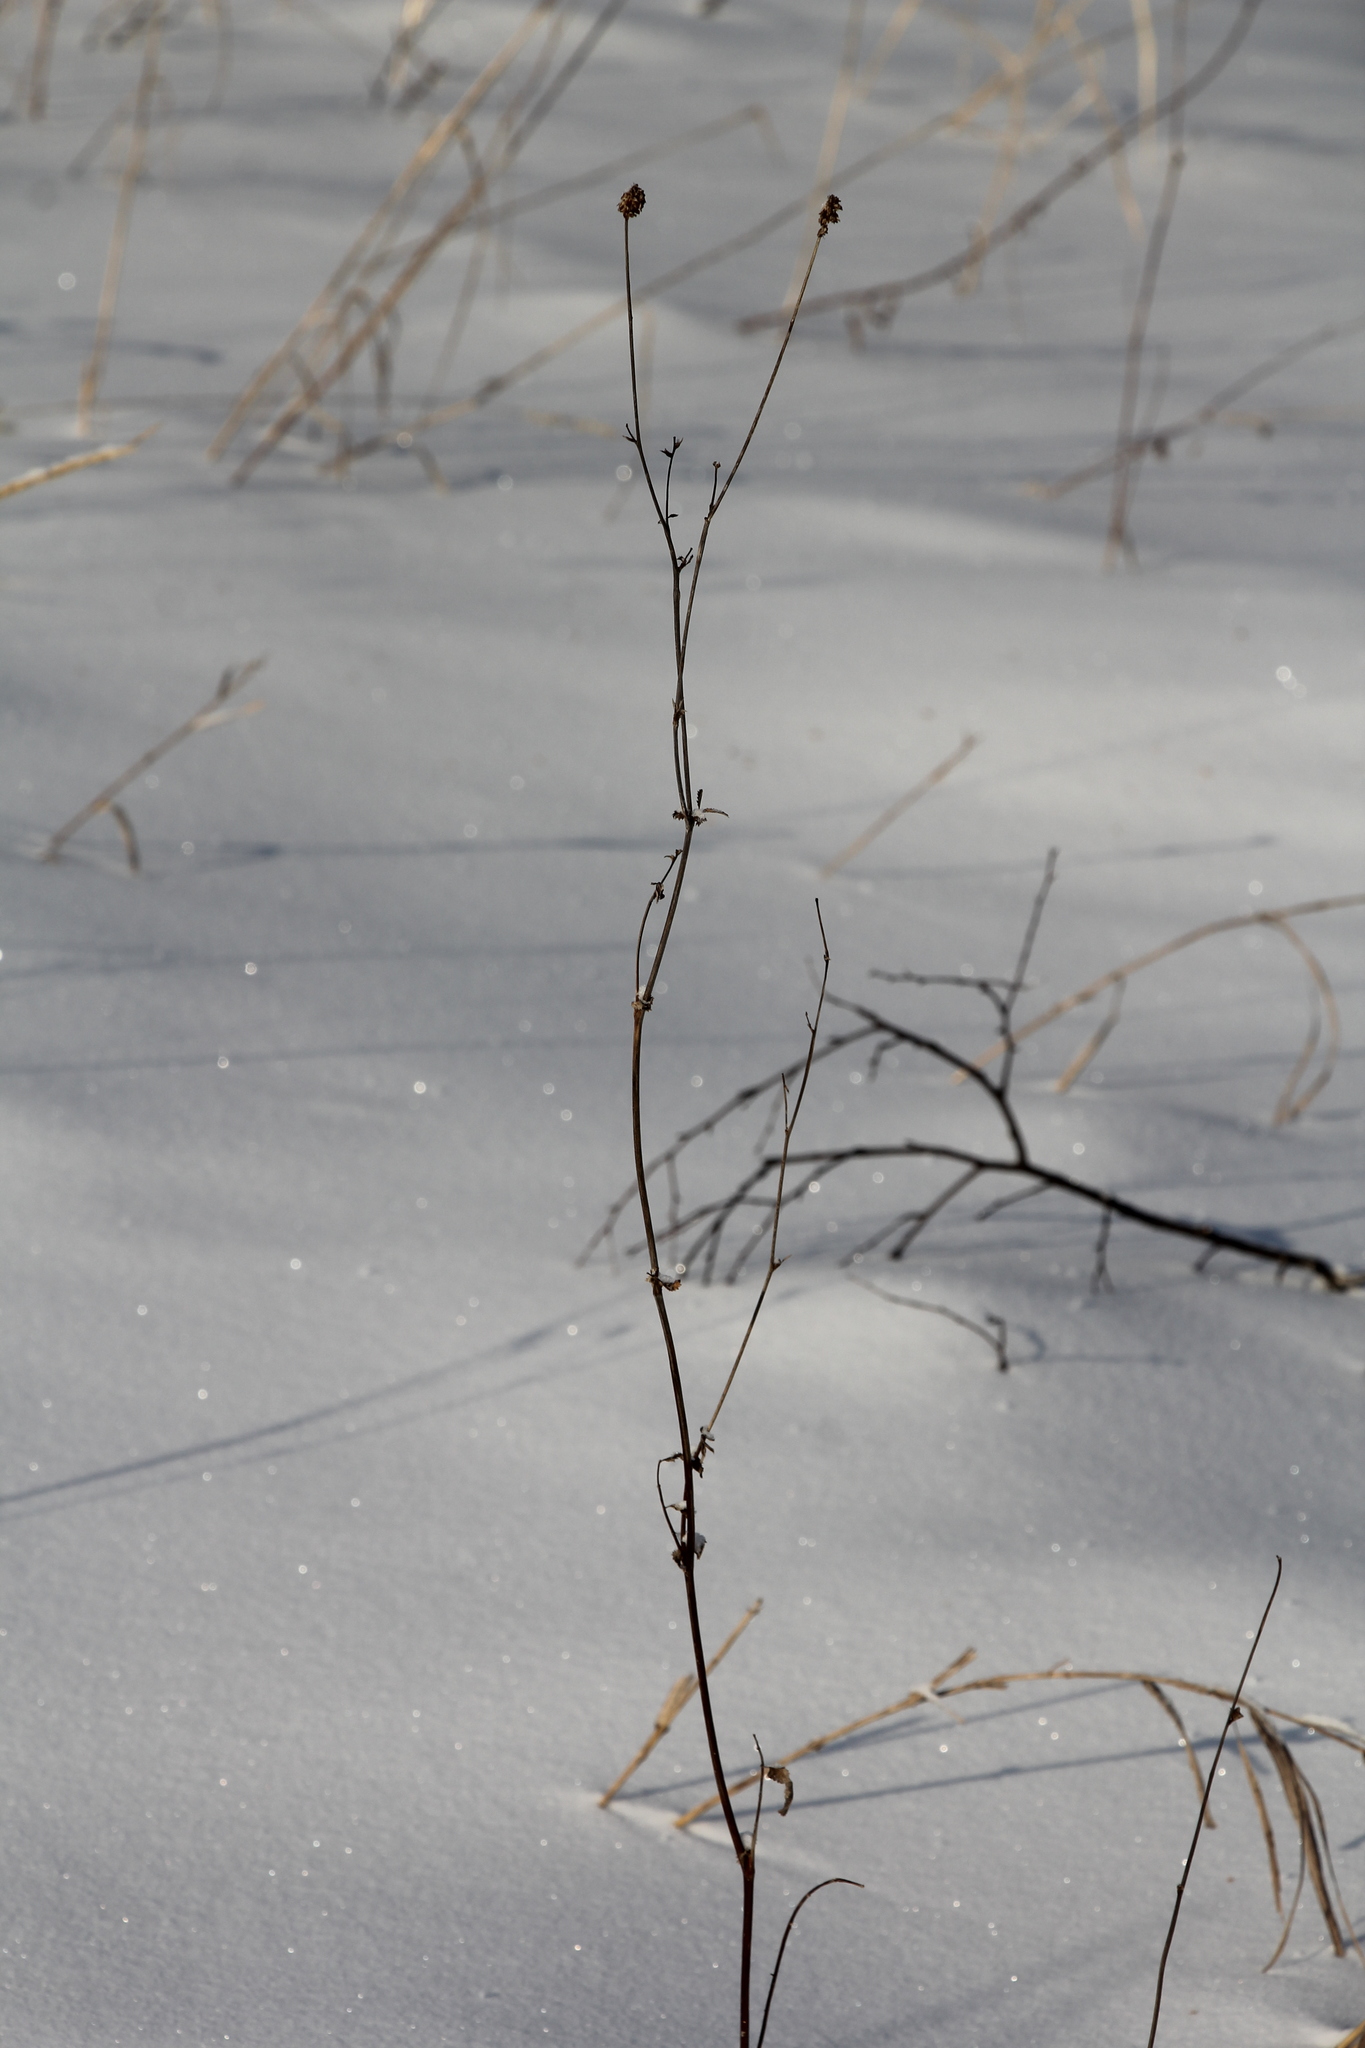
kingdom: Plantae
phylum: Tracheophyta
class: Magnoliopsida
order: Rosales
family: Rosaceae
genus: Sanguisorba
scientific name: Sanguisorba officinalis
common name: Great burnet
